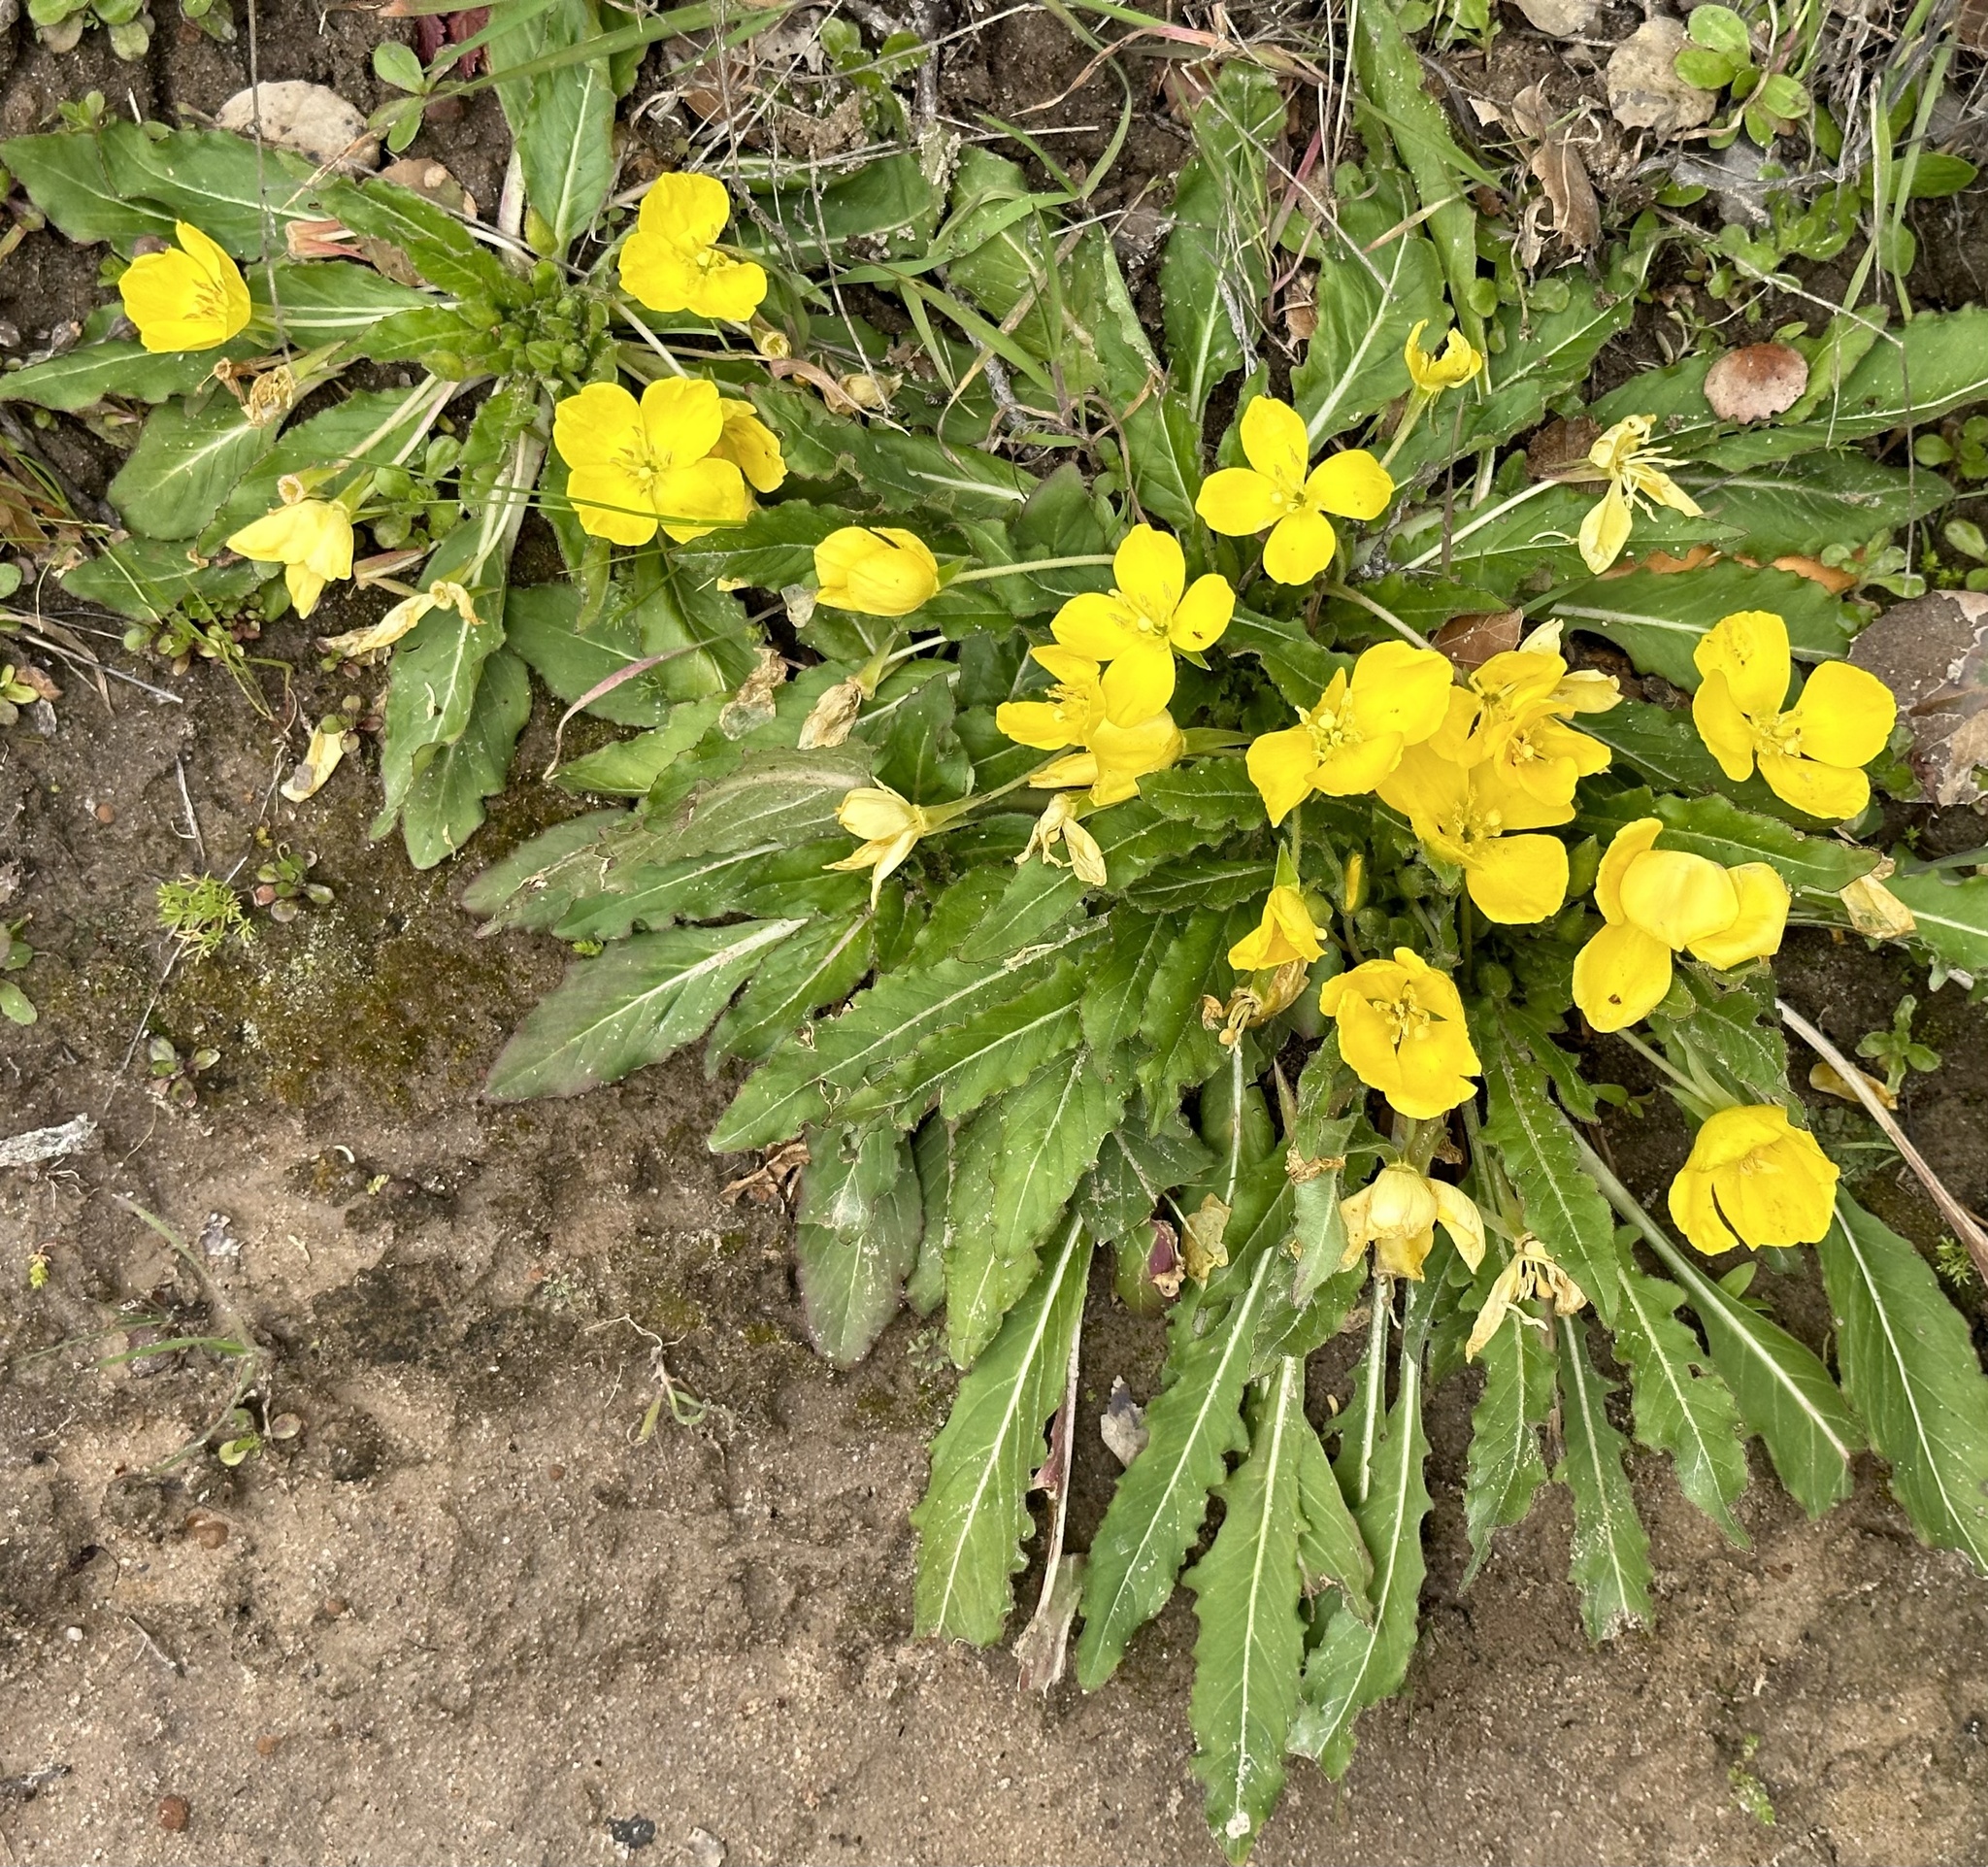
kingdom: Plantae
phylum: Tracheophyta
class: Magnoliopsida
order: Myrtales
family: Onagraceae
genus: Taraxia
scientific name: Taraxia ovata
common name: Goldeneggs
